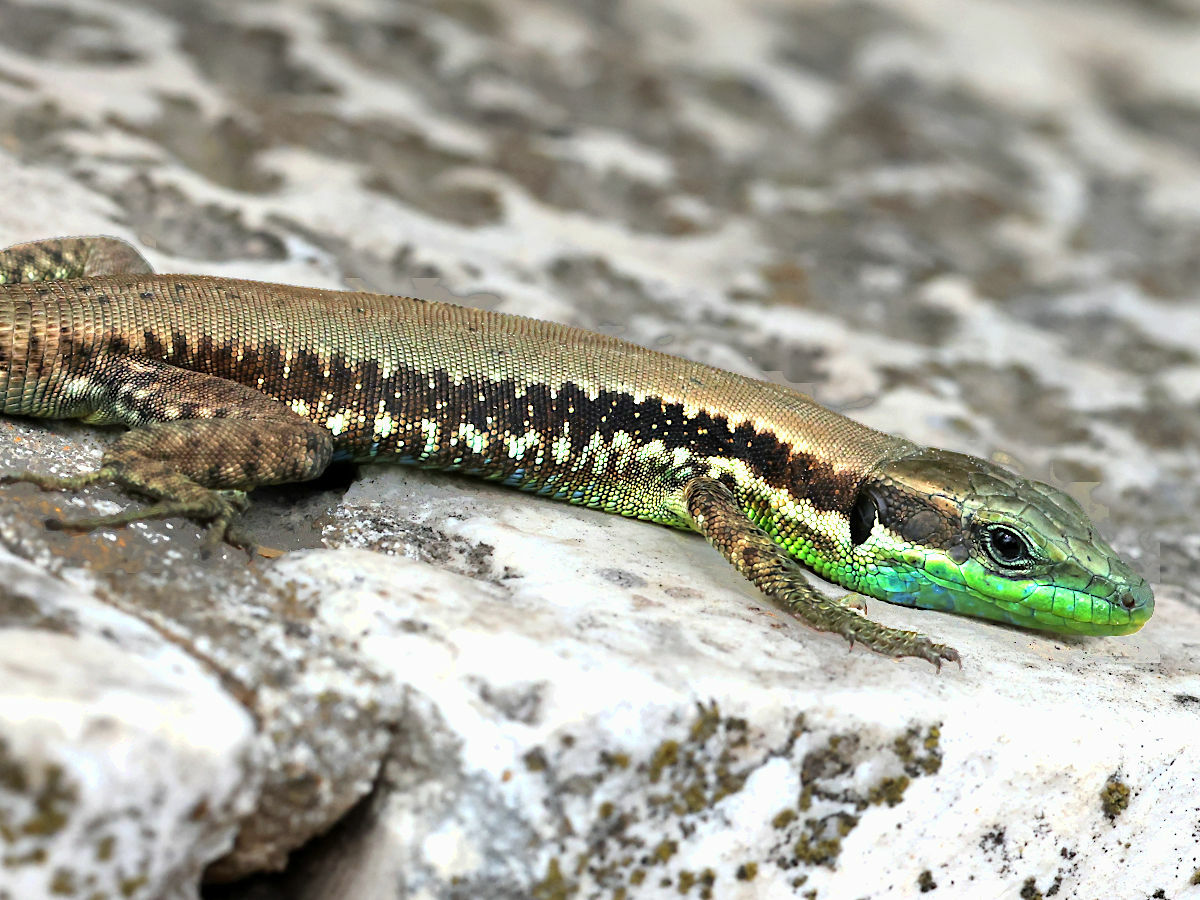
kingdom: Animalia
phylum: Chordata
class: Squamata
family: Lacertidae
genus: Phoenicolacerta
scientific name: Phoenicolacerta laevis
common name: Lebanon lizard
